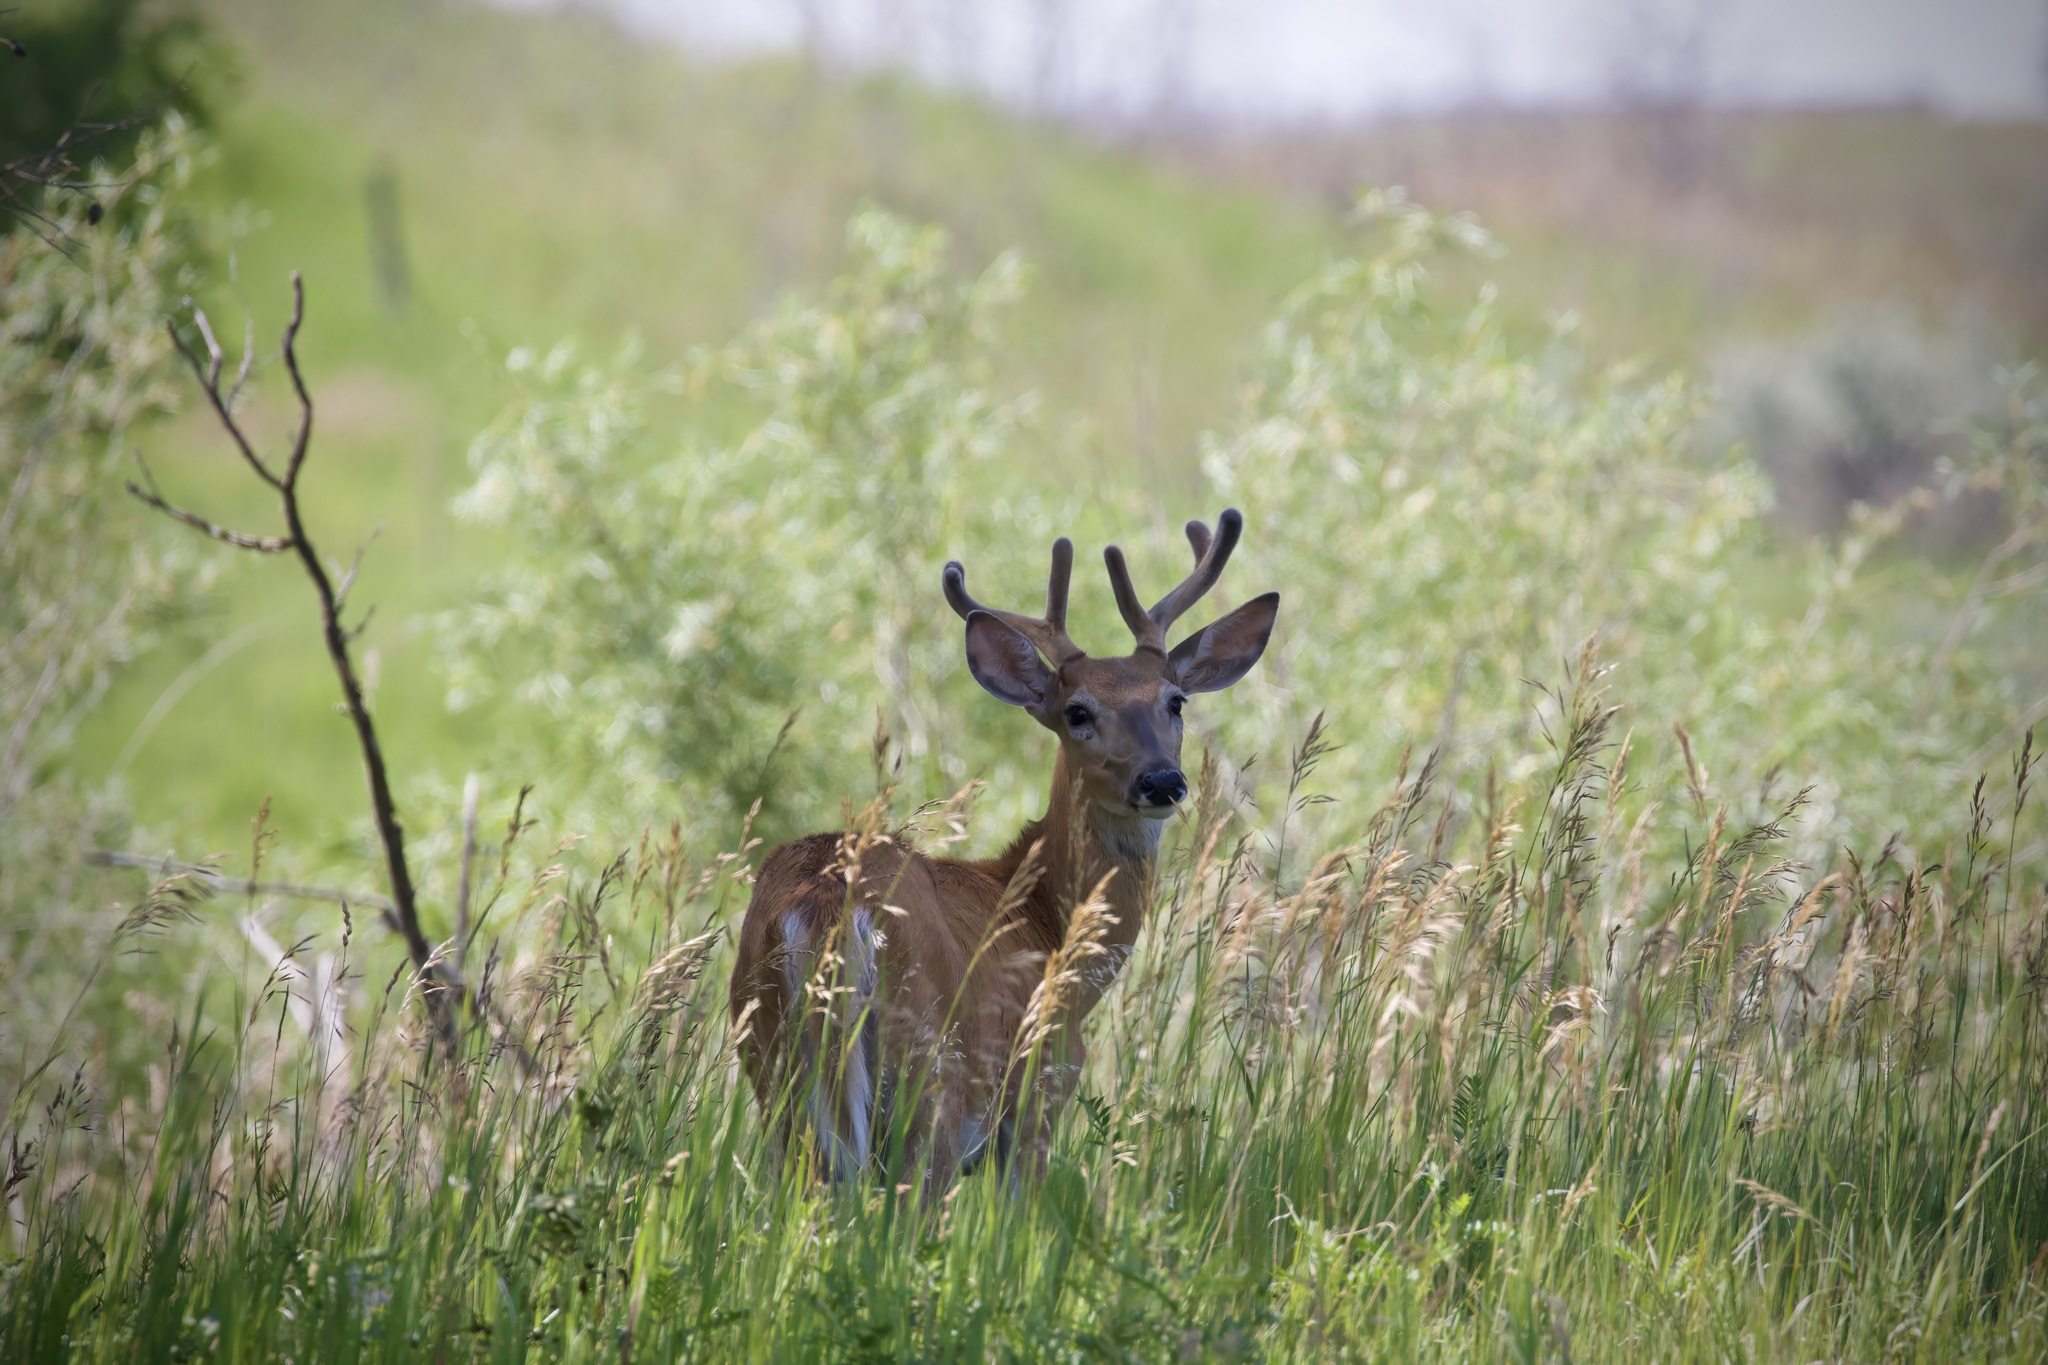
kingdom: Animalia
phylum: Chordata
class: Mammalia
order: Artiodactyla
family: Cervidae
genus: Odocoileus
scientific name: Odocoileus virginianus
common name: White-tailed deer
